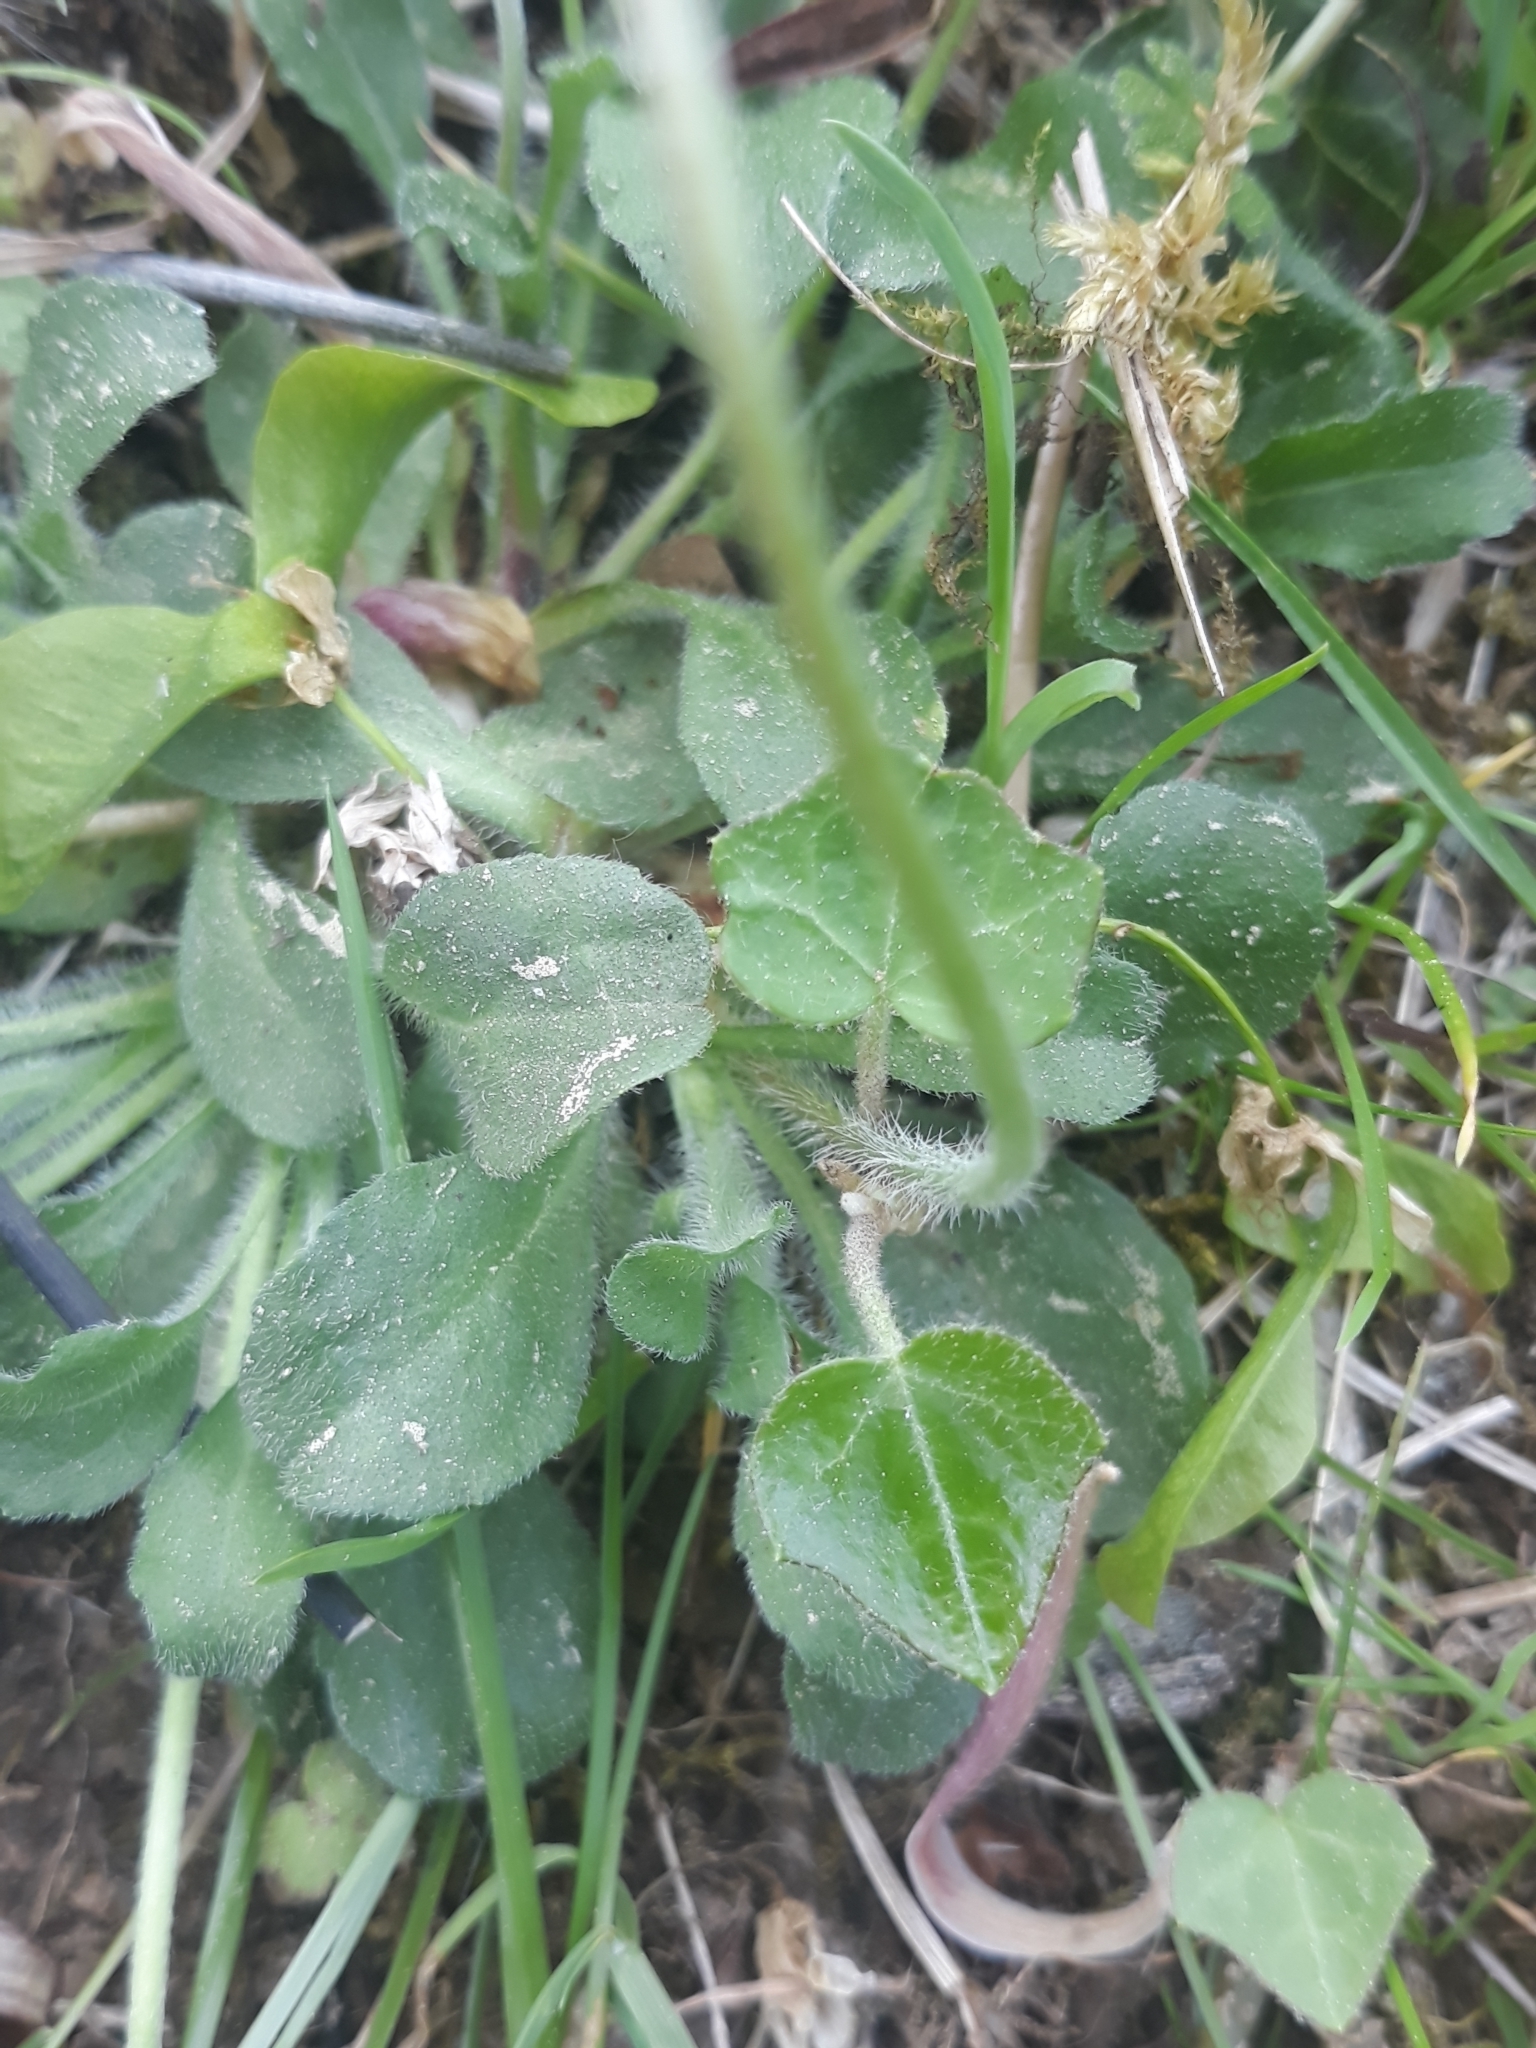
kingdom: Plantae
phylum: Tracheophyta
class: Magnoliopsida
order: Asterales
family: Asteraceae
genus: Bellis
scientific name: Bellis perennis
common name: Lawndaisy
